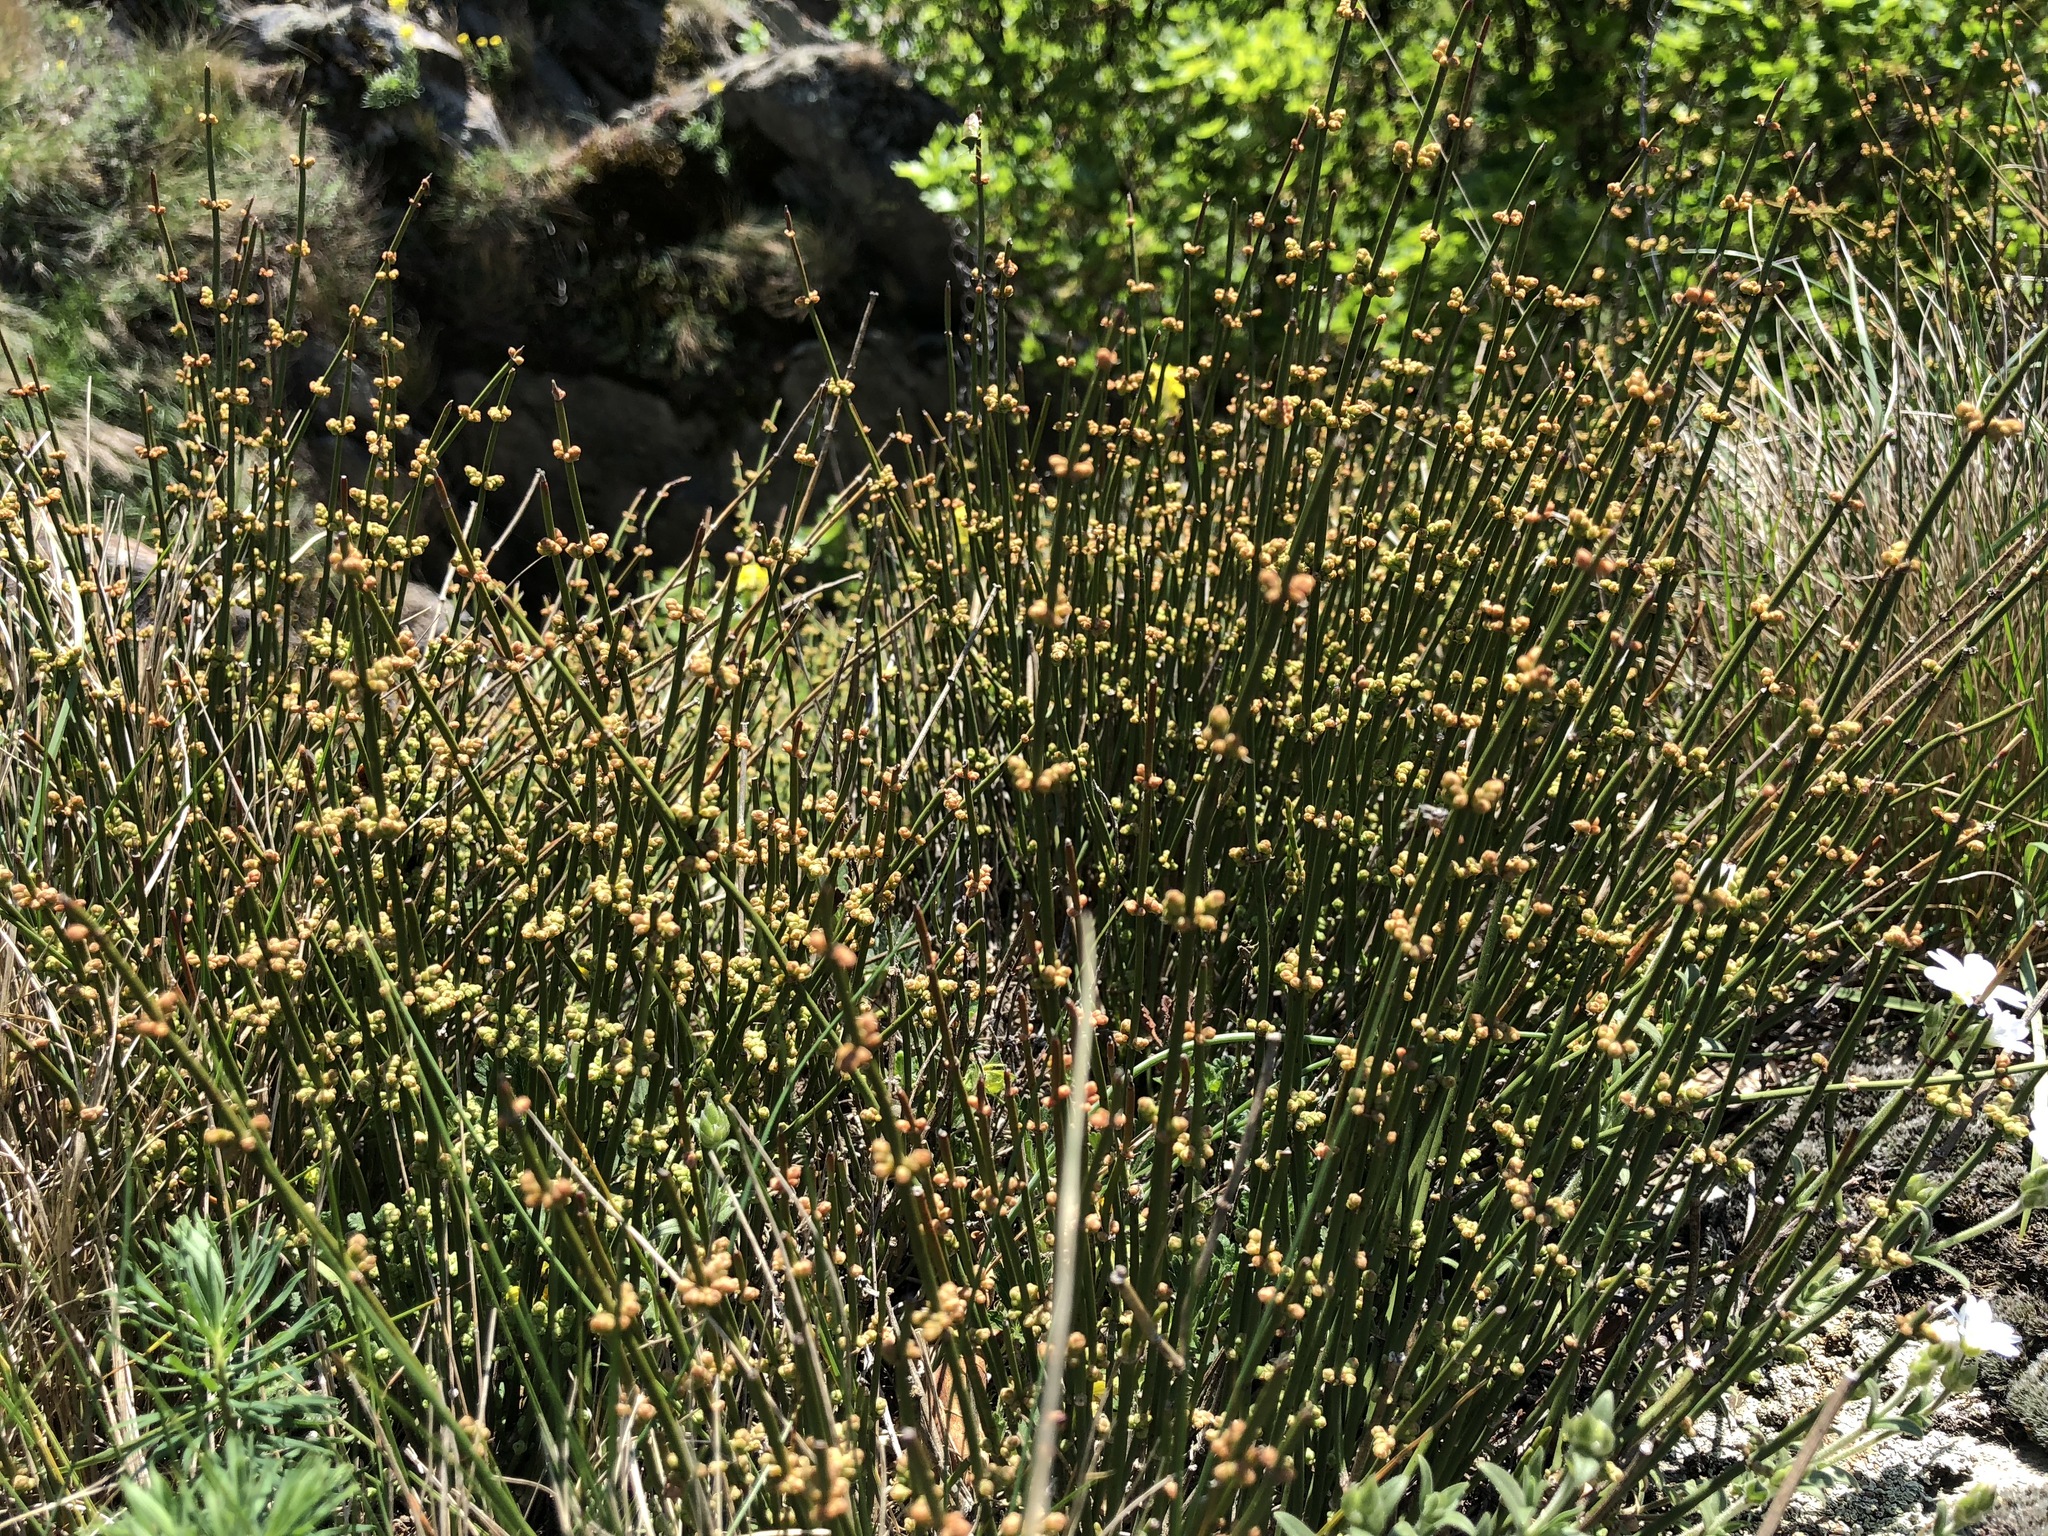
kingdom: Plantae
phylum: Tracheophyta
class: Gnetopsida
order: Ephedrales
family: Ephedraceae
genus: Ephedra
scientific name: Ephedra distachya
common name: Sea grape
